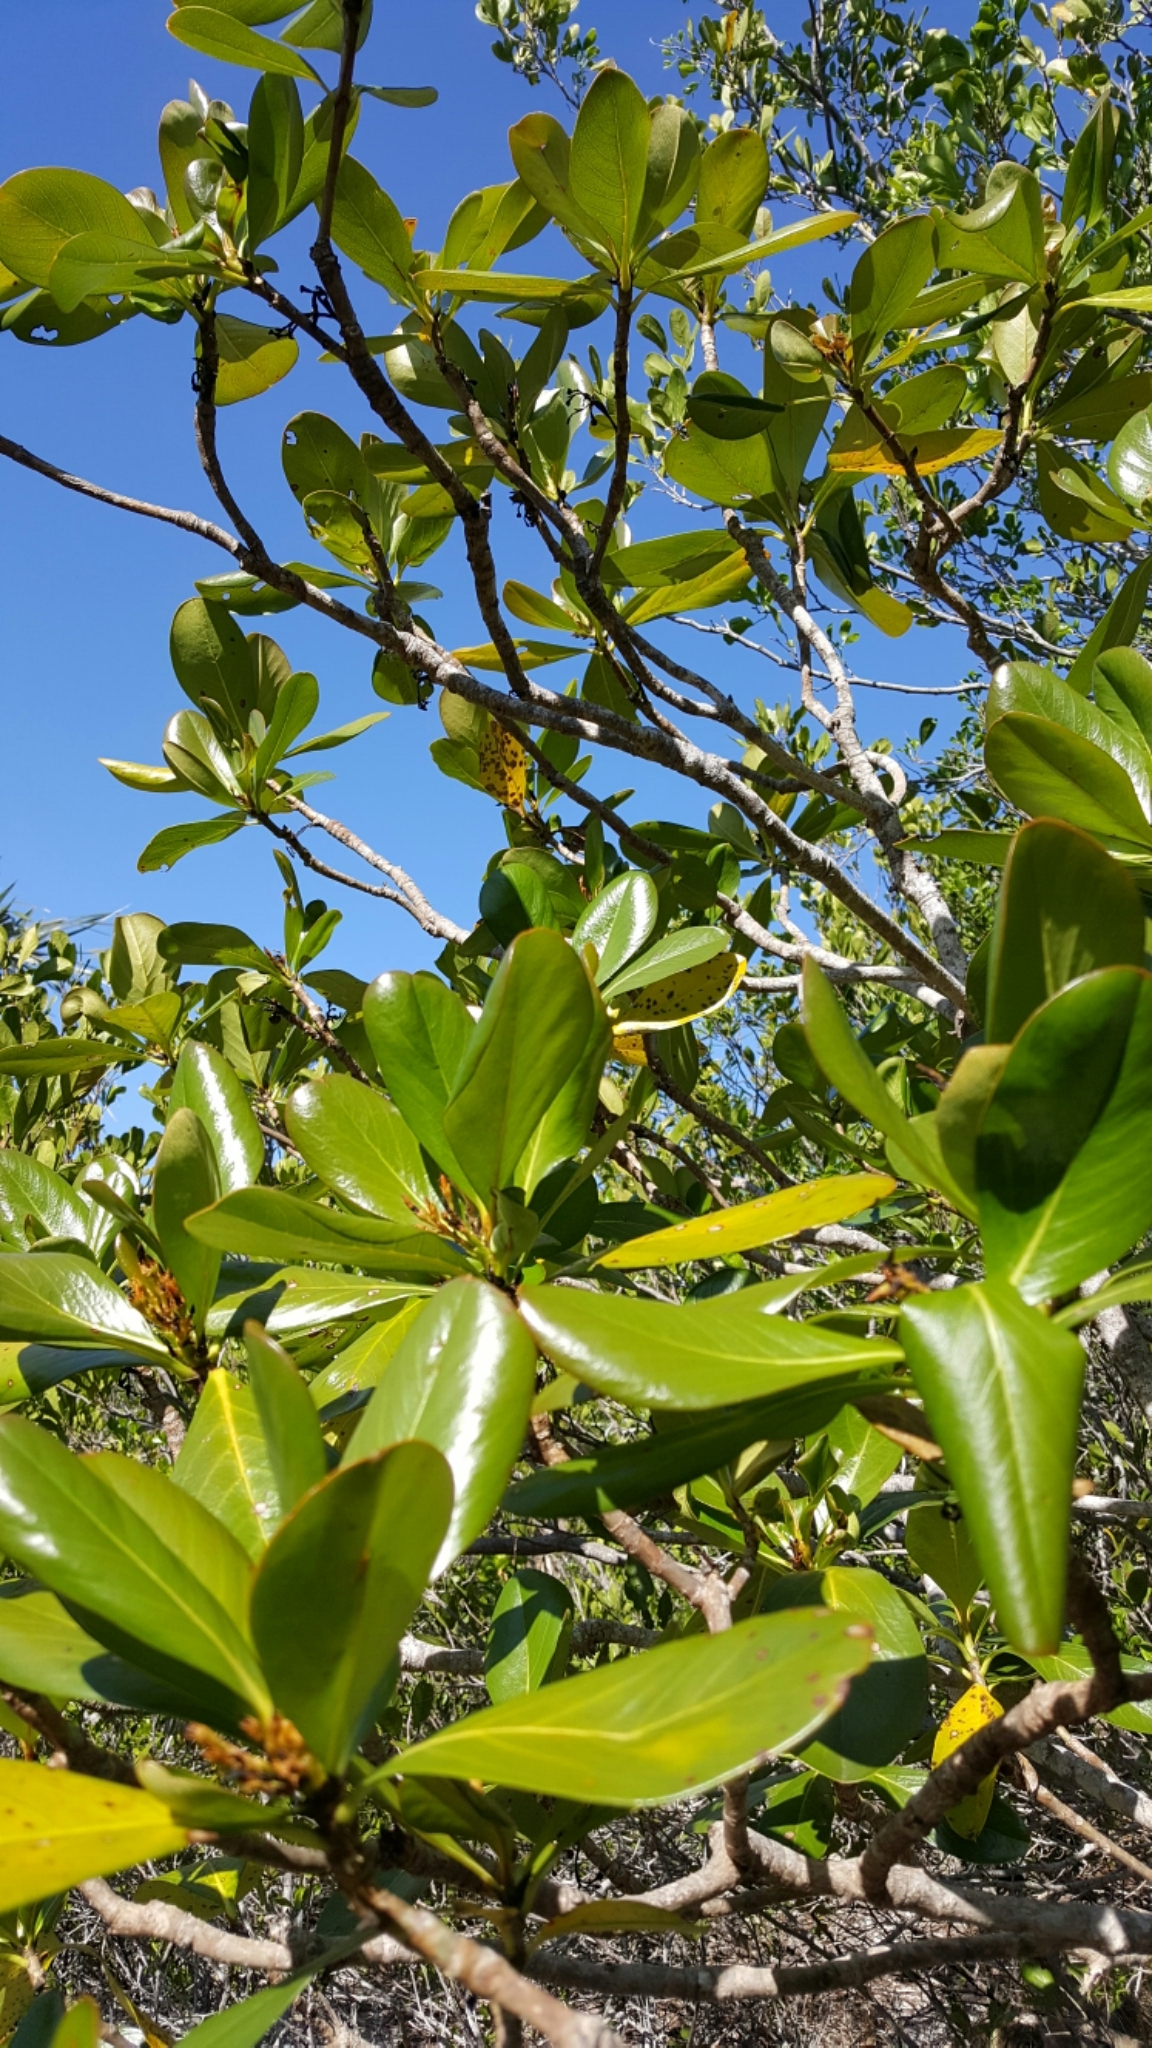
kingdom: Plantae
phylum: Tracheophyta
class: Magnoliopsida
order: Gentianales
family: Rubiaceae
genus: Casasia
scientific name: Casasia clusiifolia
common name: Seven-year apple
